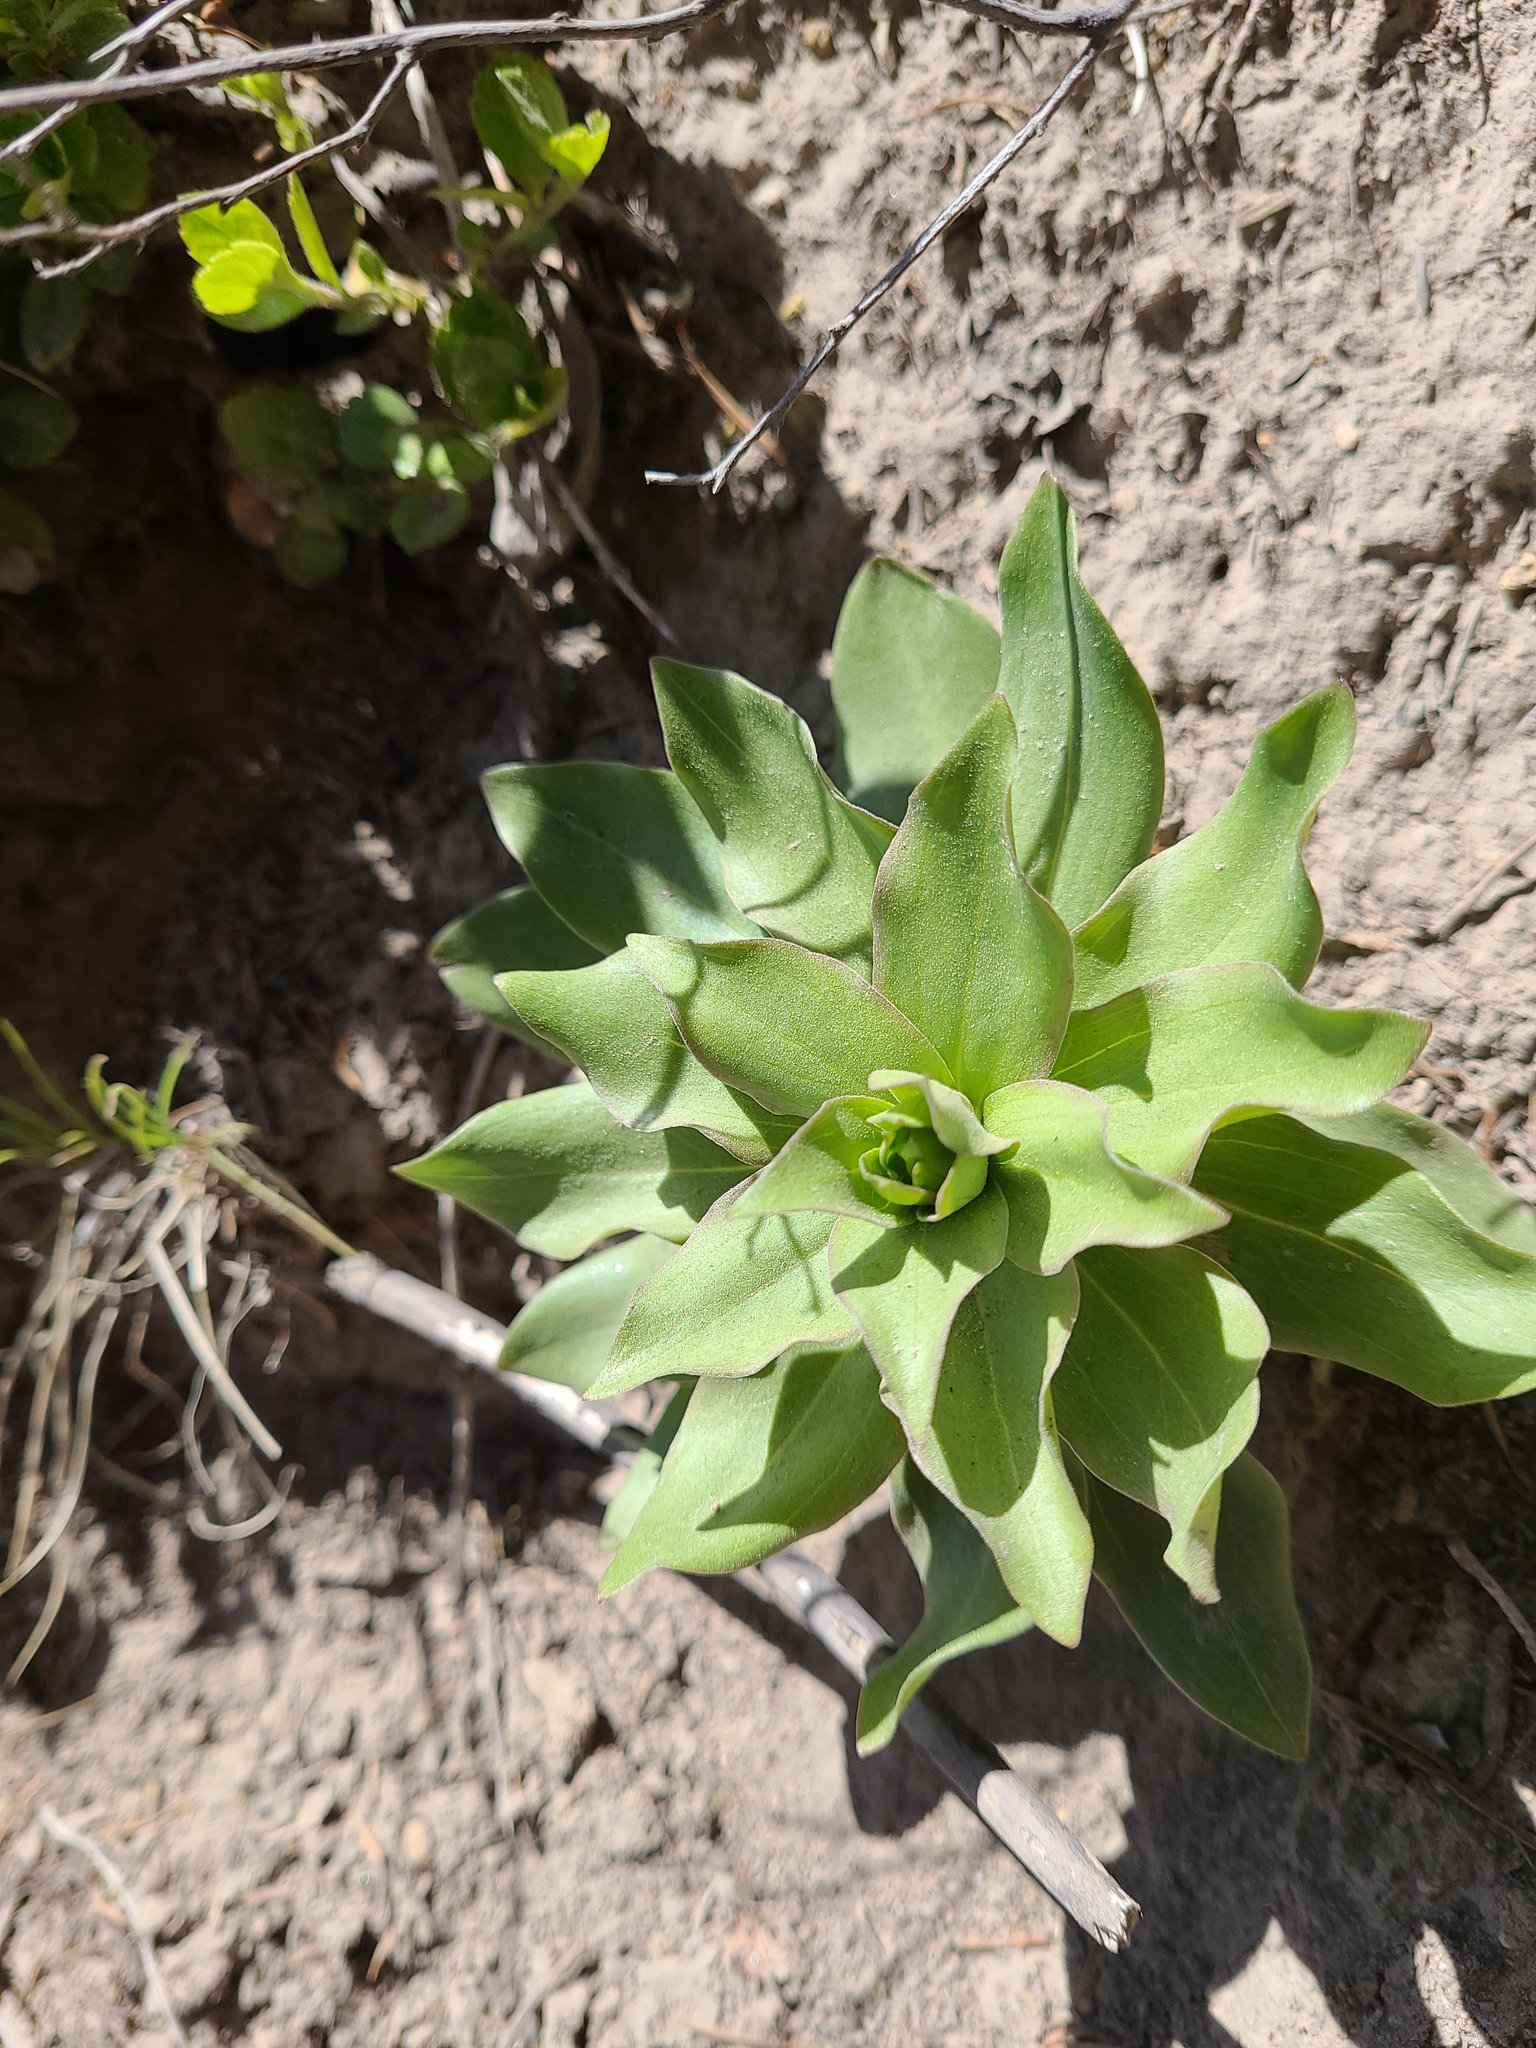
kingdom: Plantae
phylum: Tracheophyta
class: Liliopsida
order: Liliales
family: Liliaceae
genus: Lilium
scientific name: Lilium washingtonianum
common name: Washington lily
